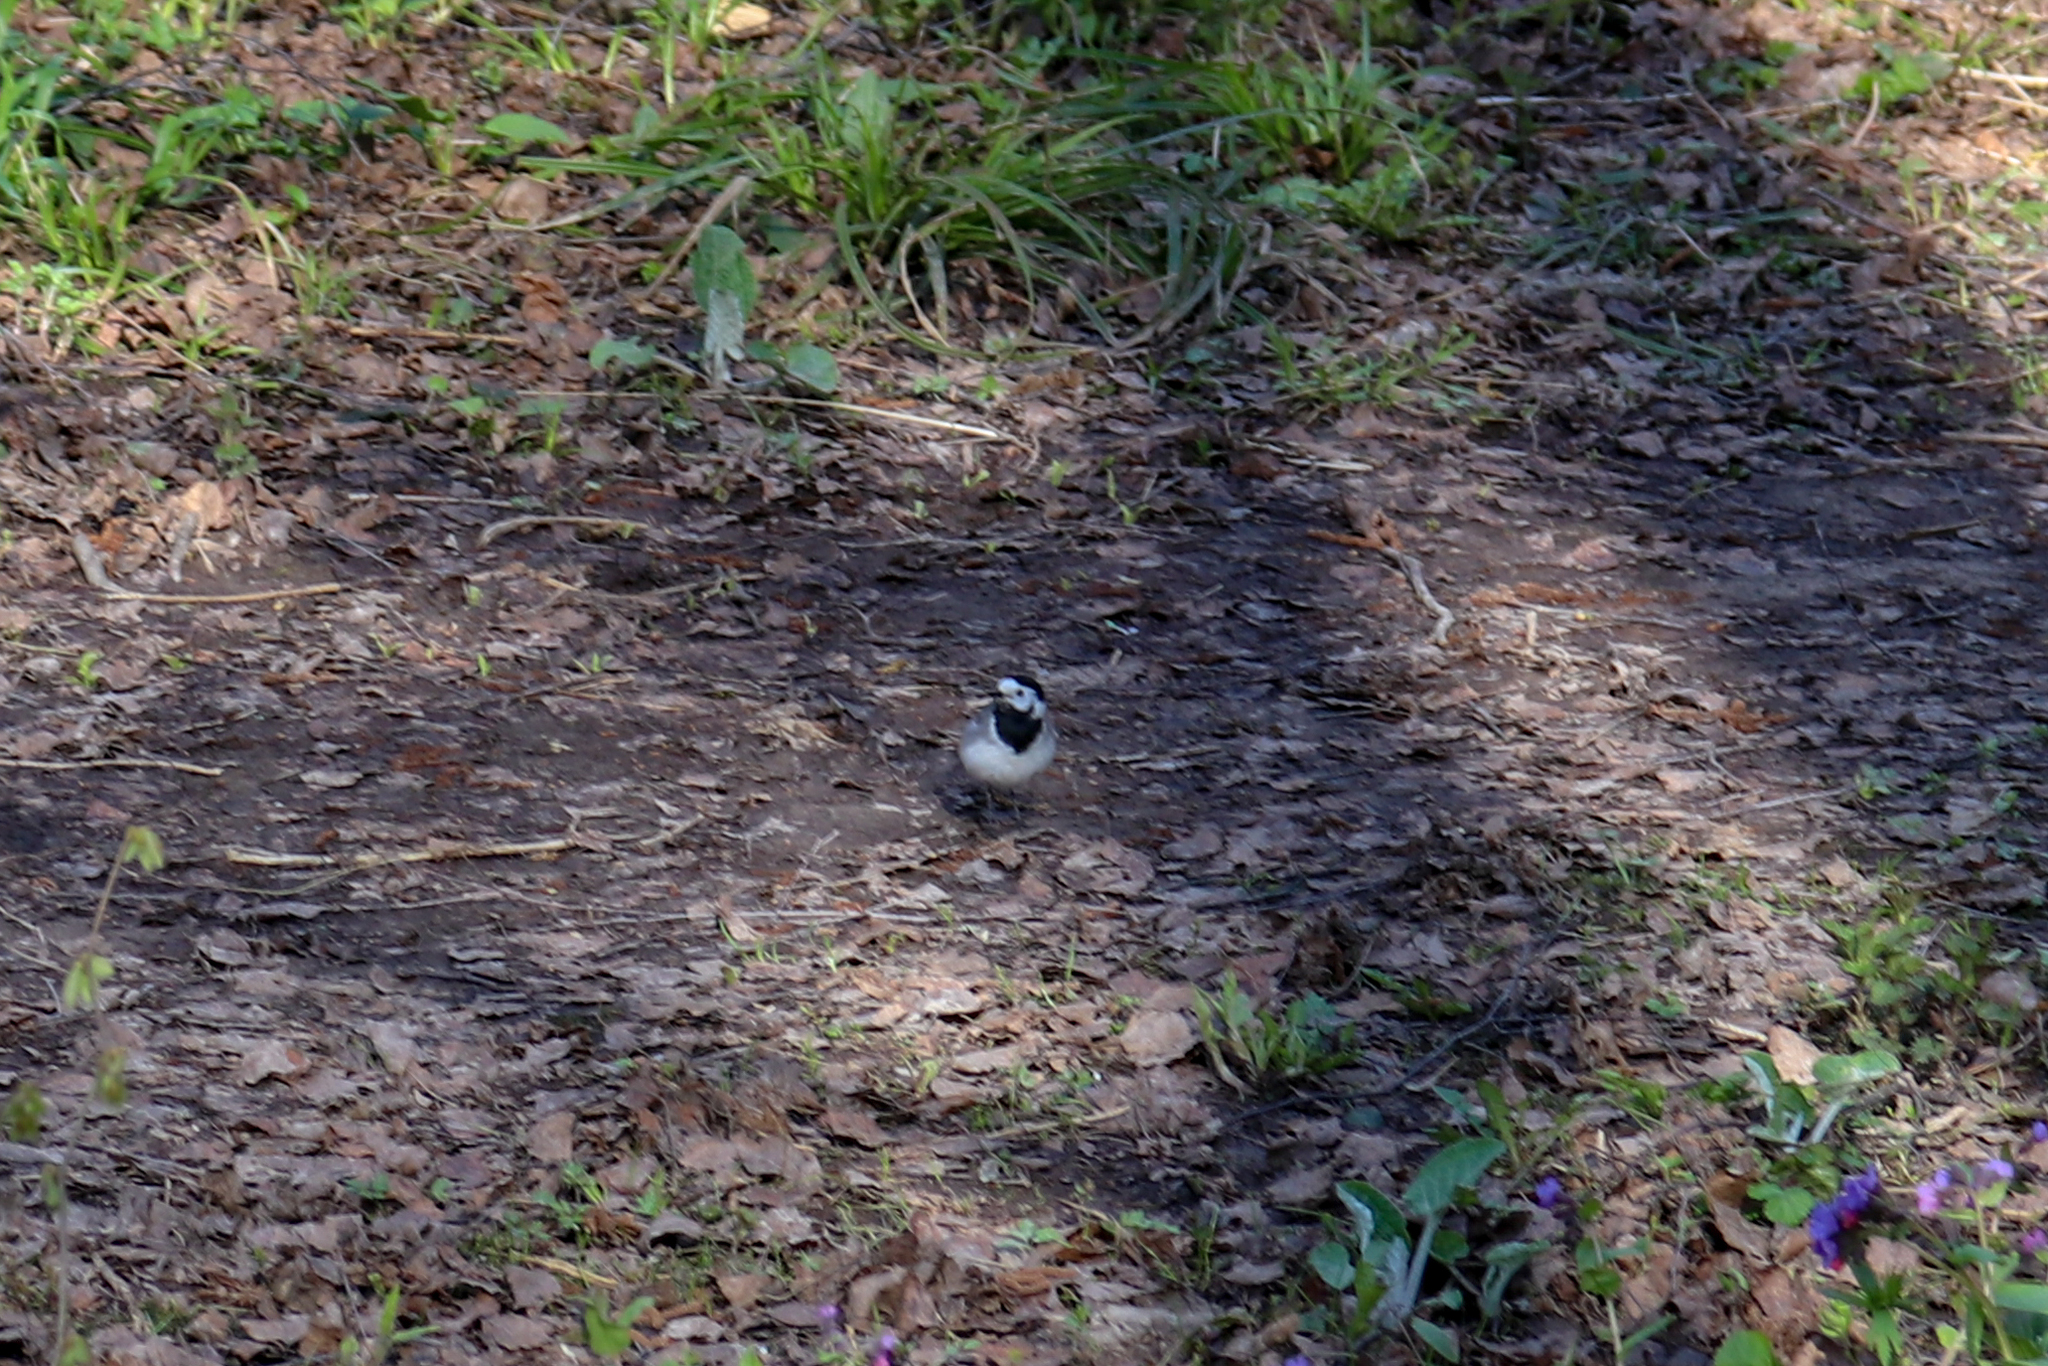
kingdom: Animalia
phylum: Chordata
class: Aves
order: Passeriformes
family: Motacillidae
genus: Motacilla
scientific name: Motacilla alba
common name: White wagtail
